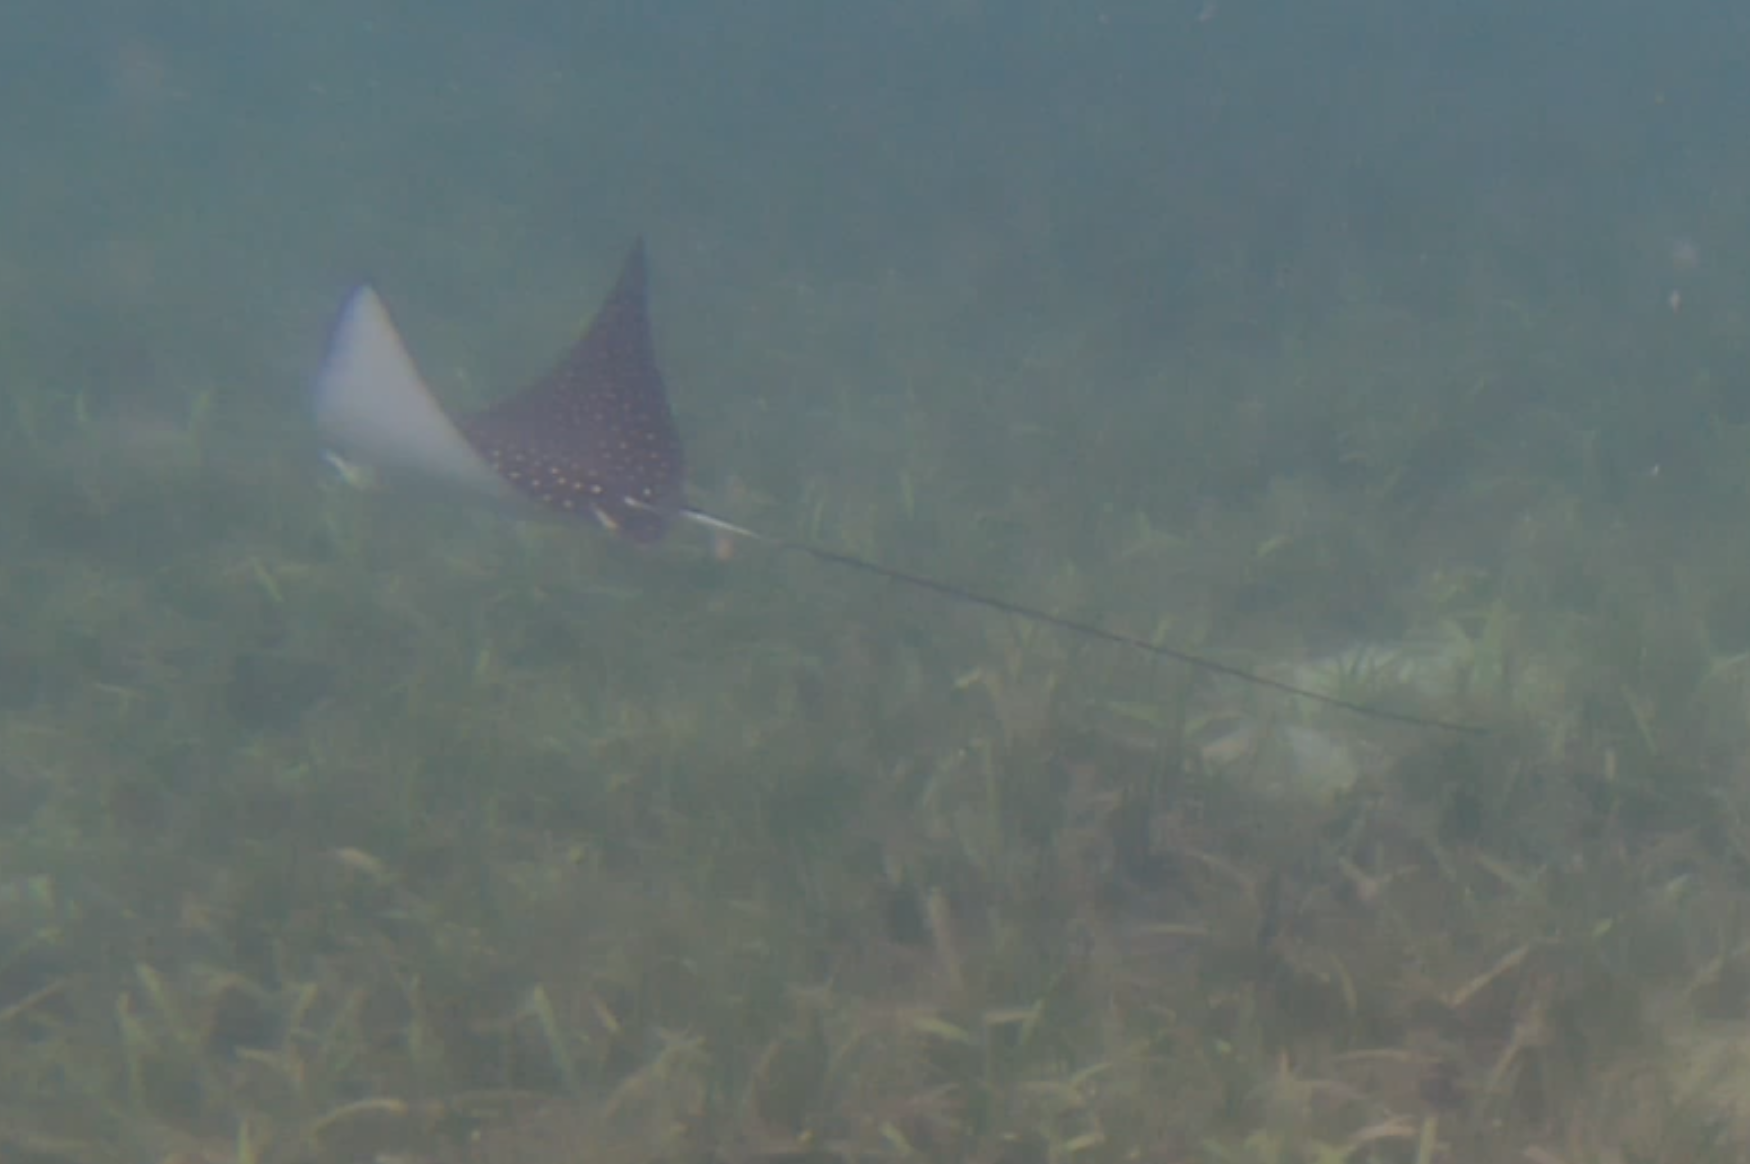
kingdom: Animalia
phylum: Chordata
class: Elasmobranchii
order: Myliobatiformes
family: Myliobatidae
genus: Aetobatus
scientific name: Aetobatus narinari
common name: Spotted eagle ray
